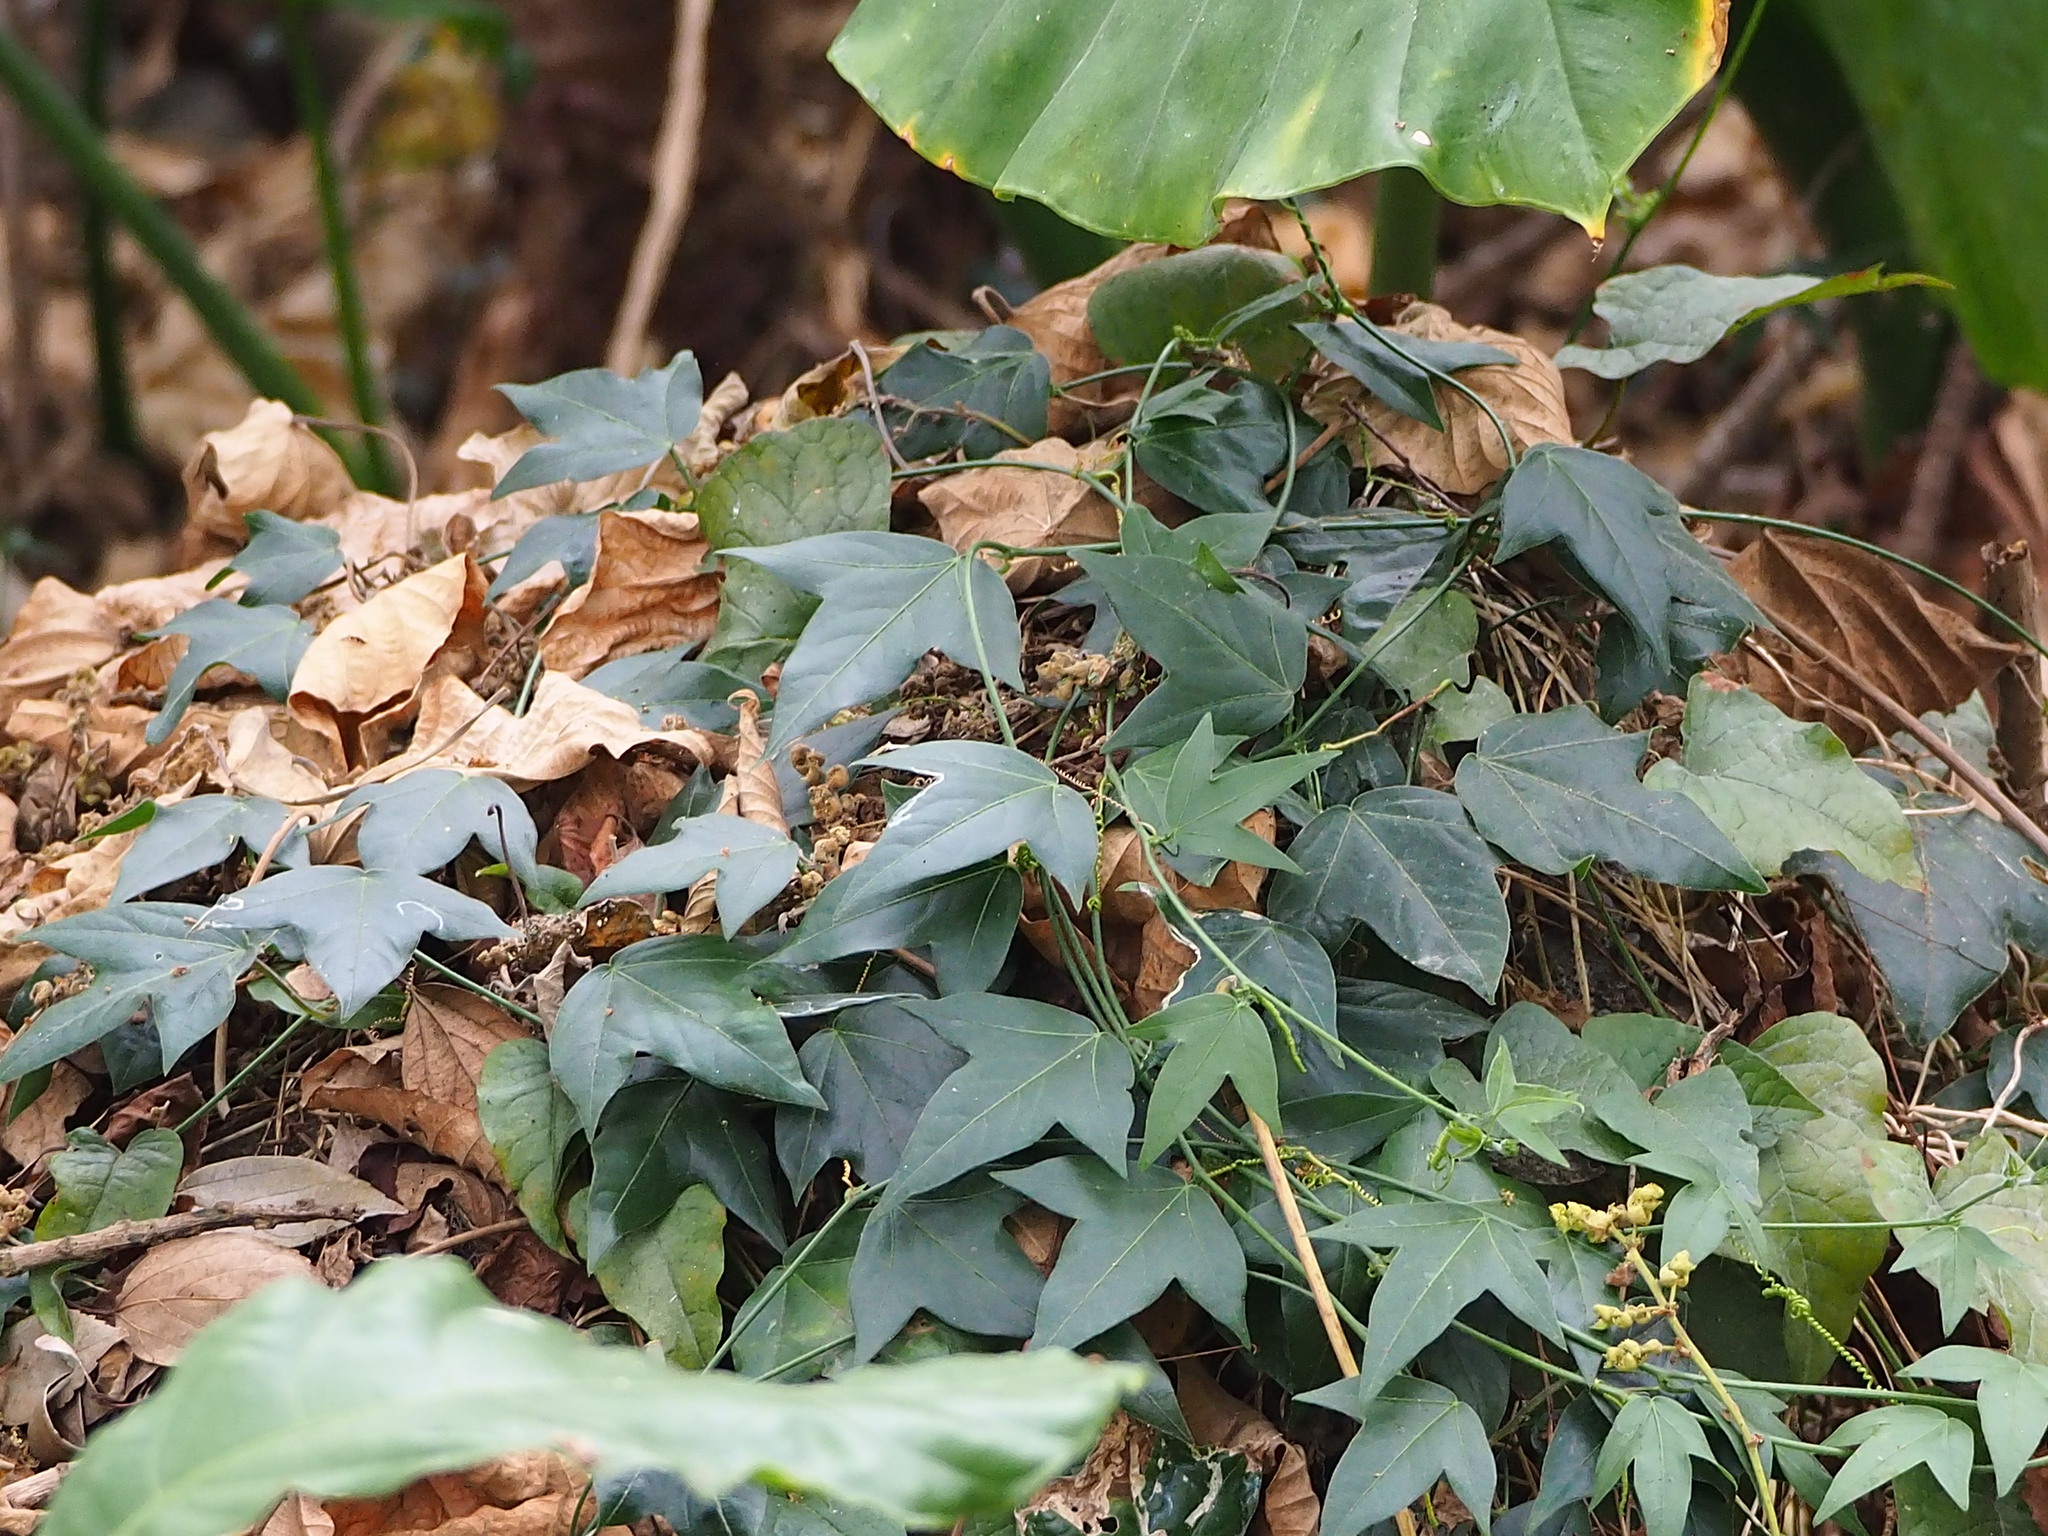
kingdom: Plantae
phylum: Tracheophyta
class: Magnoliopsida
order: Malpighiales
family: Passifloraceae
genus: Passiflora
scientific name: Passiflora suberosa
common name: Wild passionfruit
